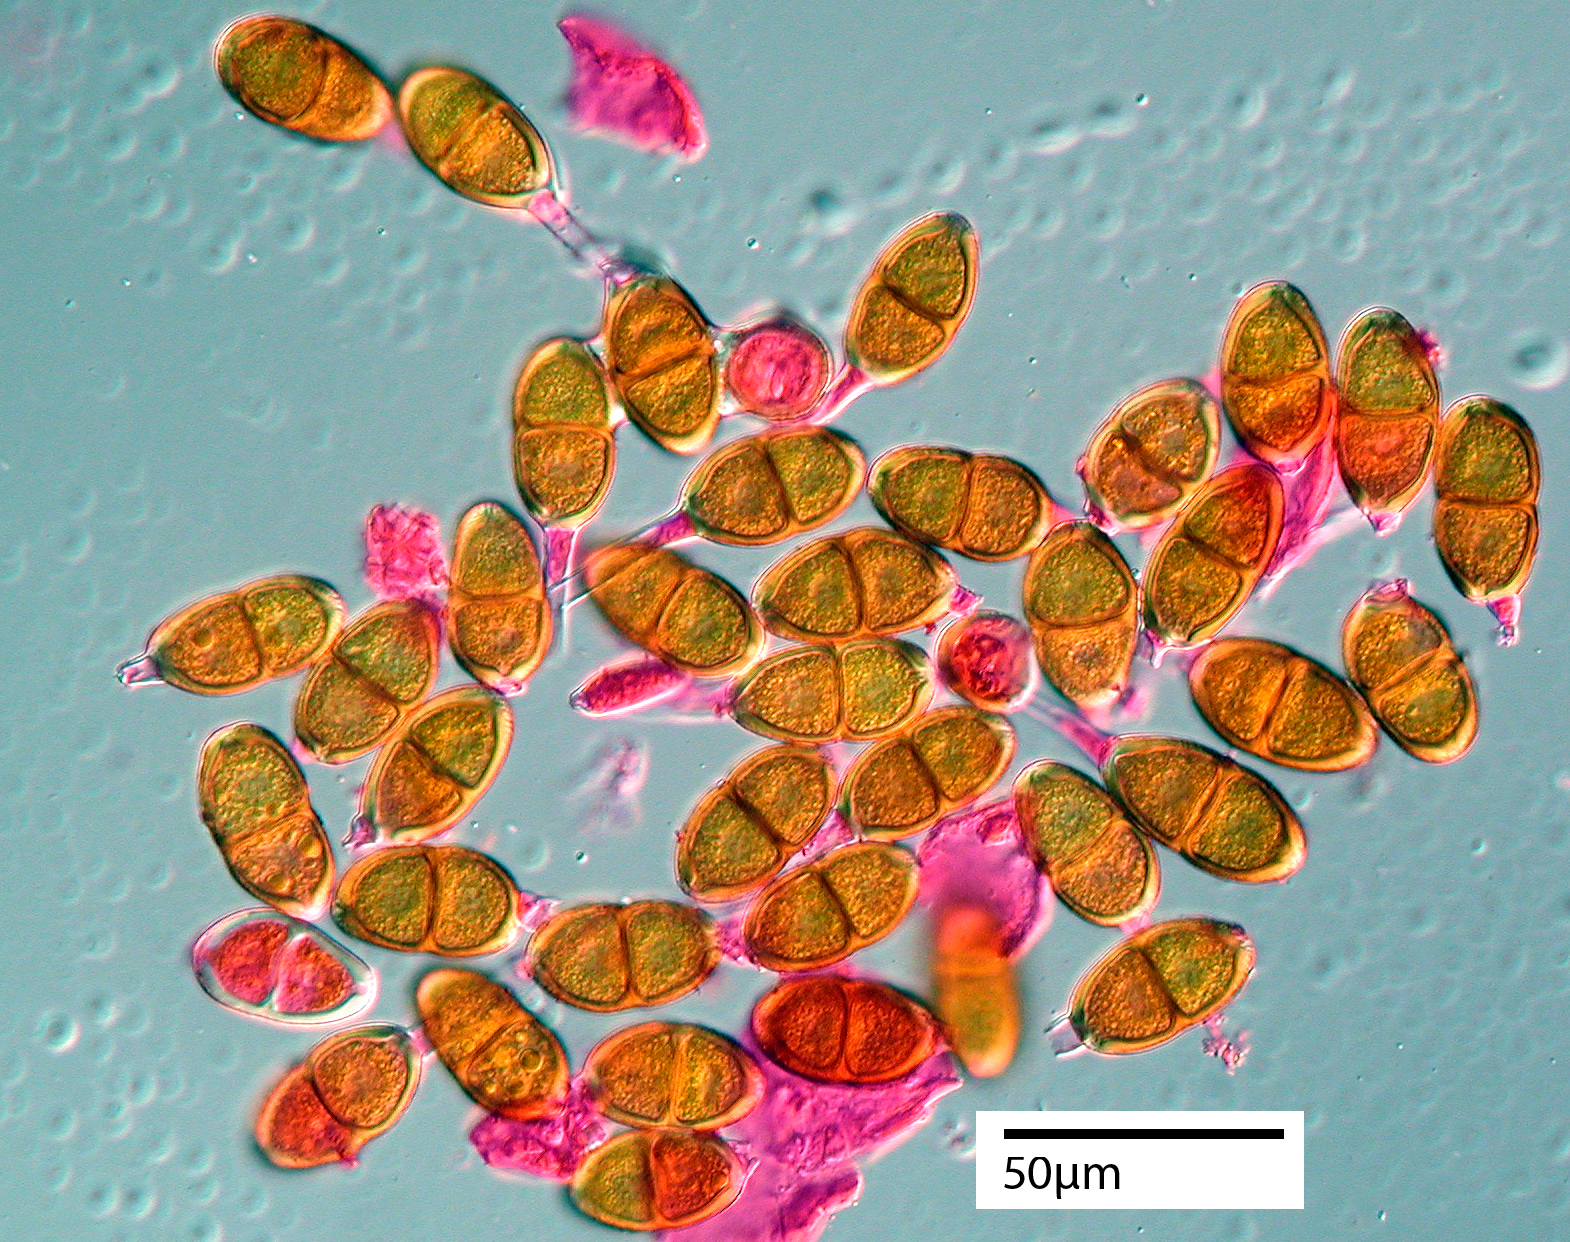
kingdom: Fungi
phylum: Basidiomycota
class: Pucciniomycetes
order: Pucciniales
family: Pucciniaceae
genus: Puccinia
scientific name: Puccinia plagianthi
